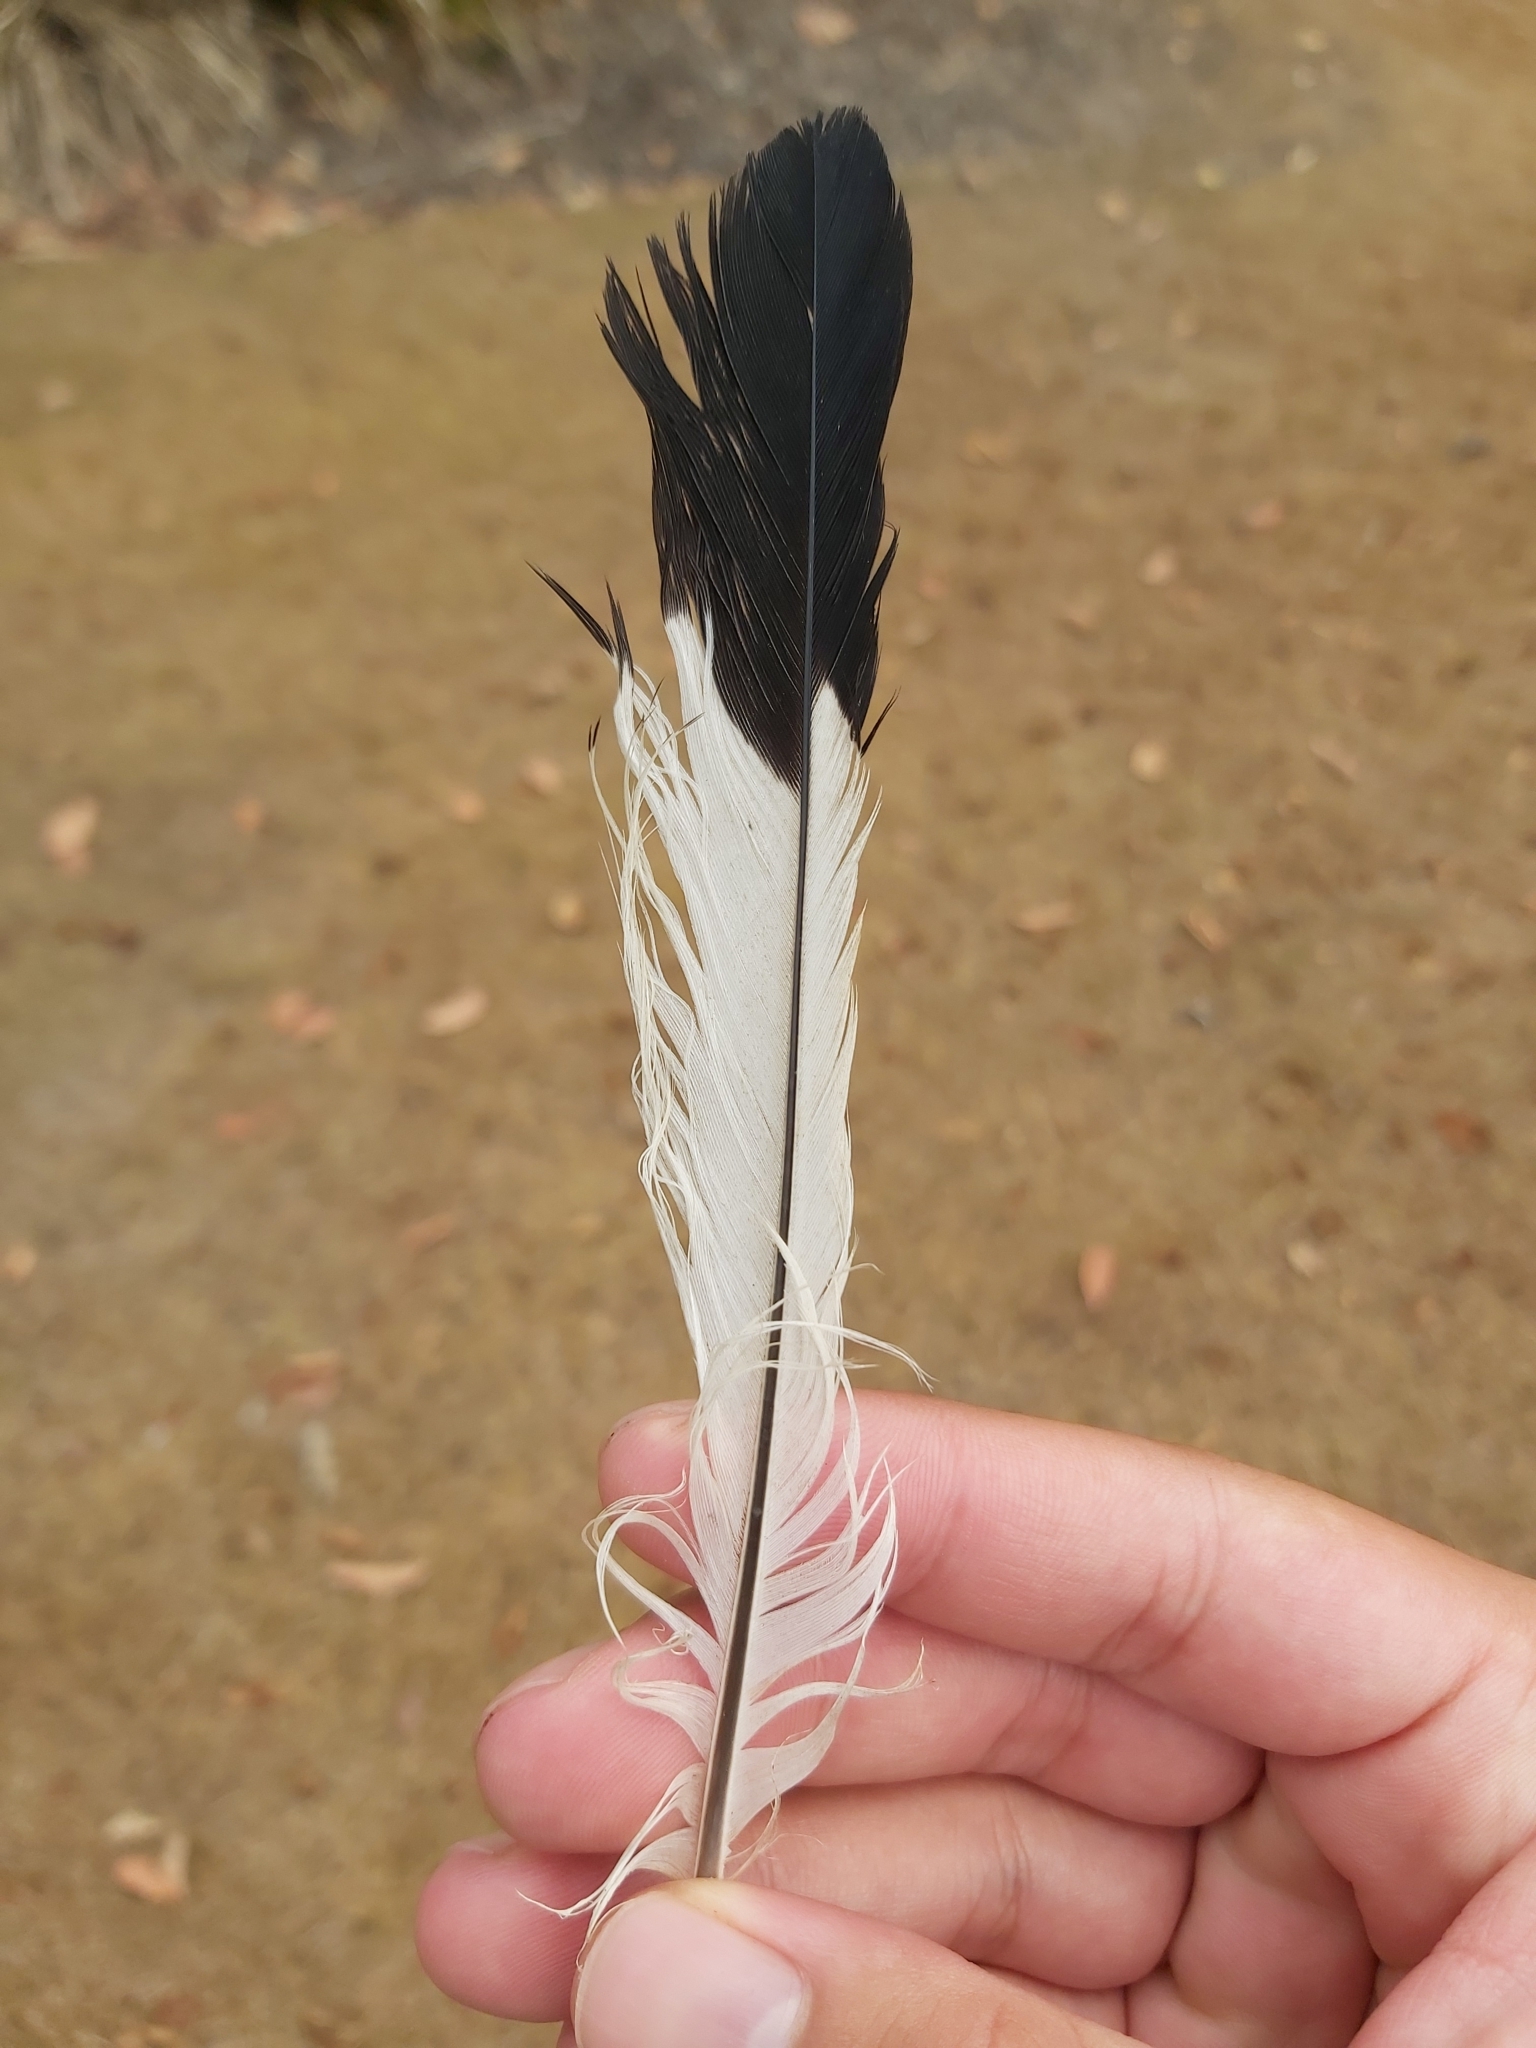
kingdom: Animalia
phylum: Chordata
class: Aves
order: Passeriformes
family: Cracticidae
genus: Gymnorhina
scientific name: Gymnorhina tibicen
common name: Australian magpie
